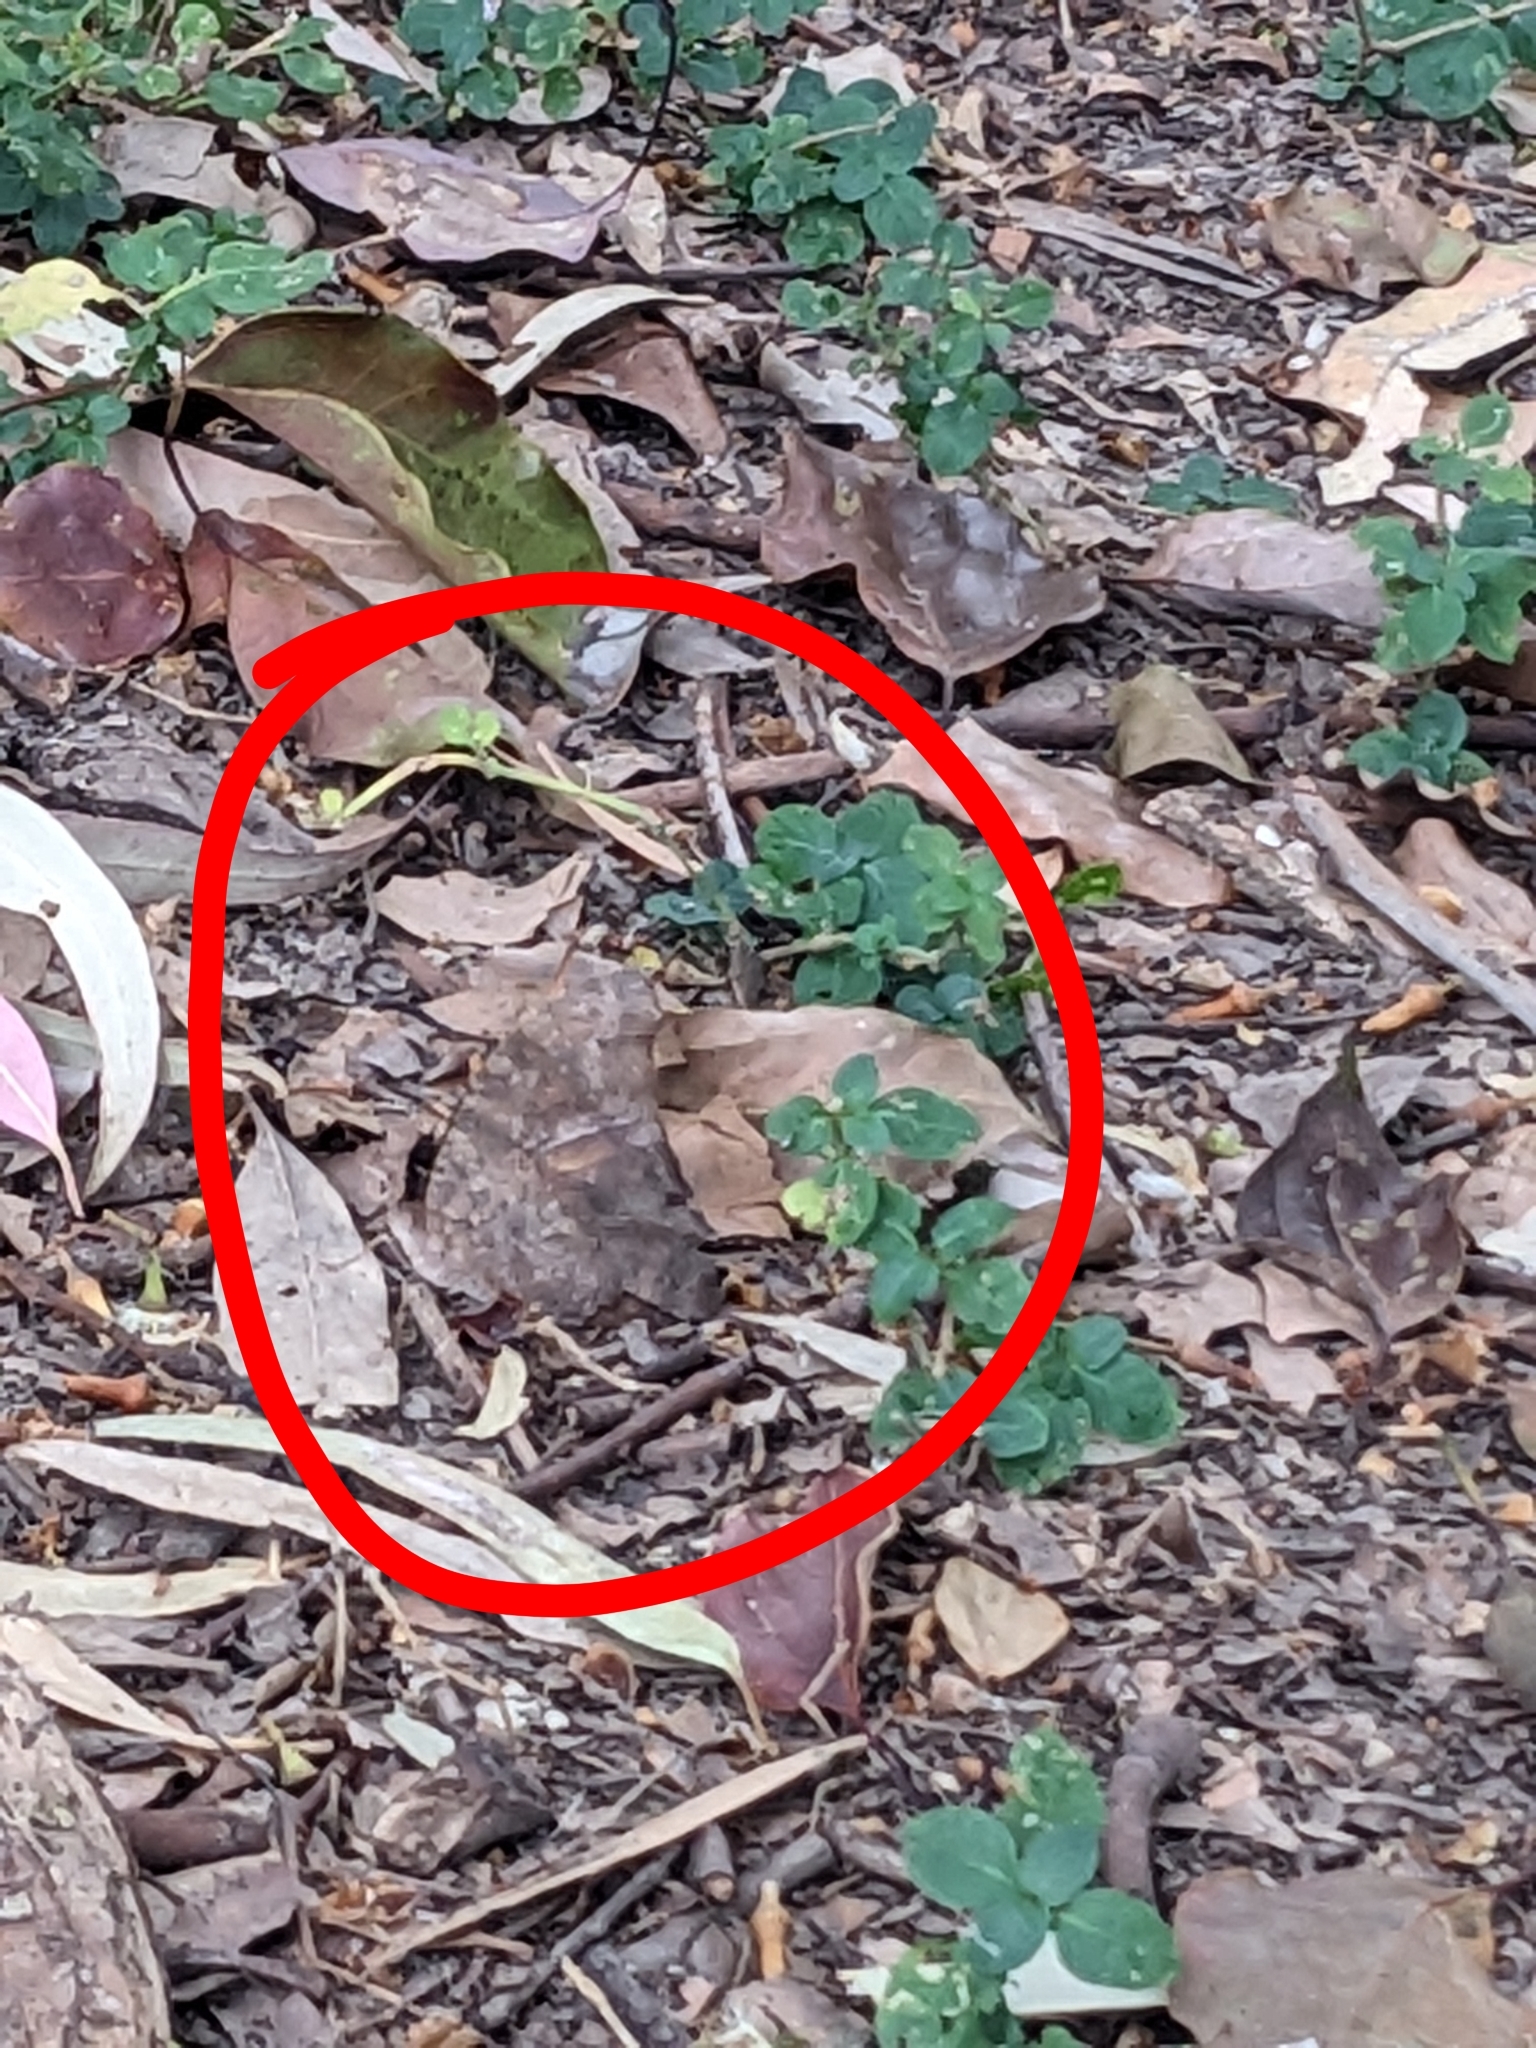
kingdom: Animalia
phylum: Arthropoda
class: Insecta
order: Lepidoptera
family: Nymphalidae
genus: Melanitis
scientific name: Melanitis leda
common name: Twilight brown
